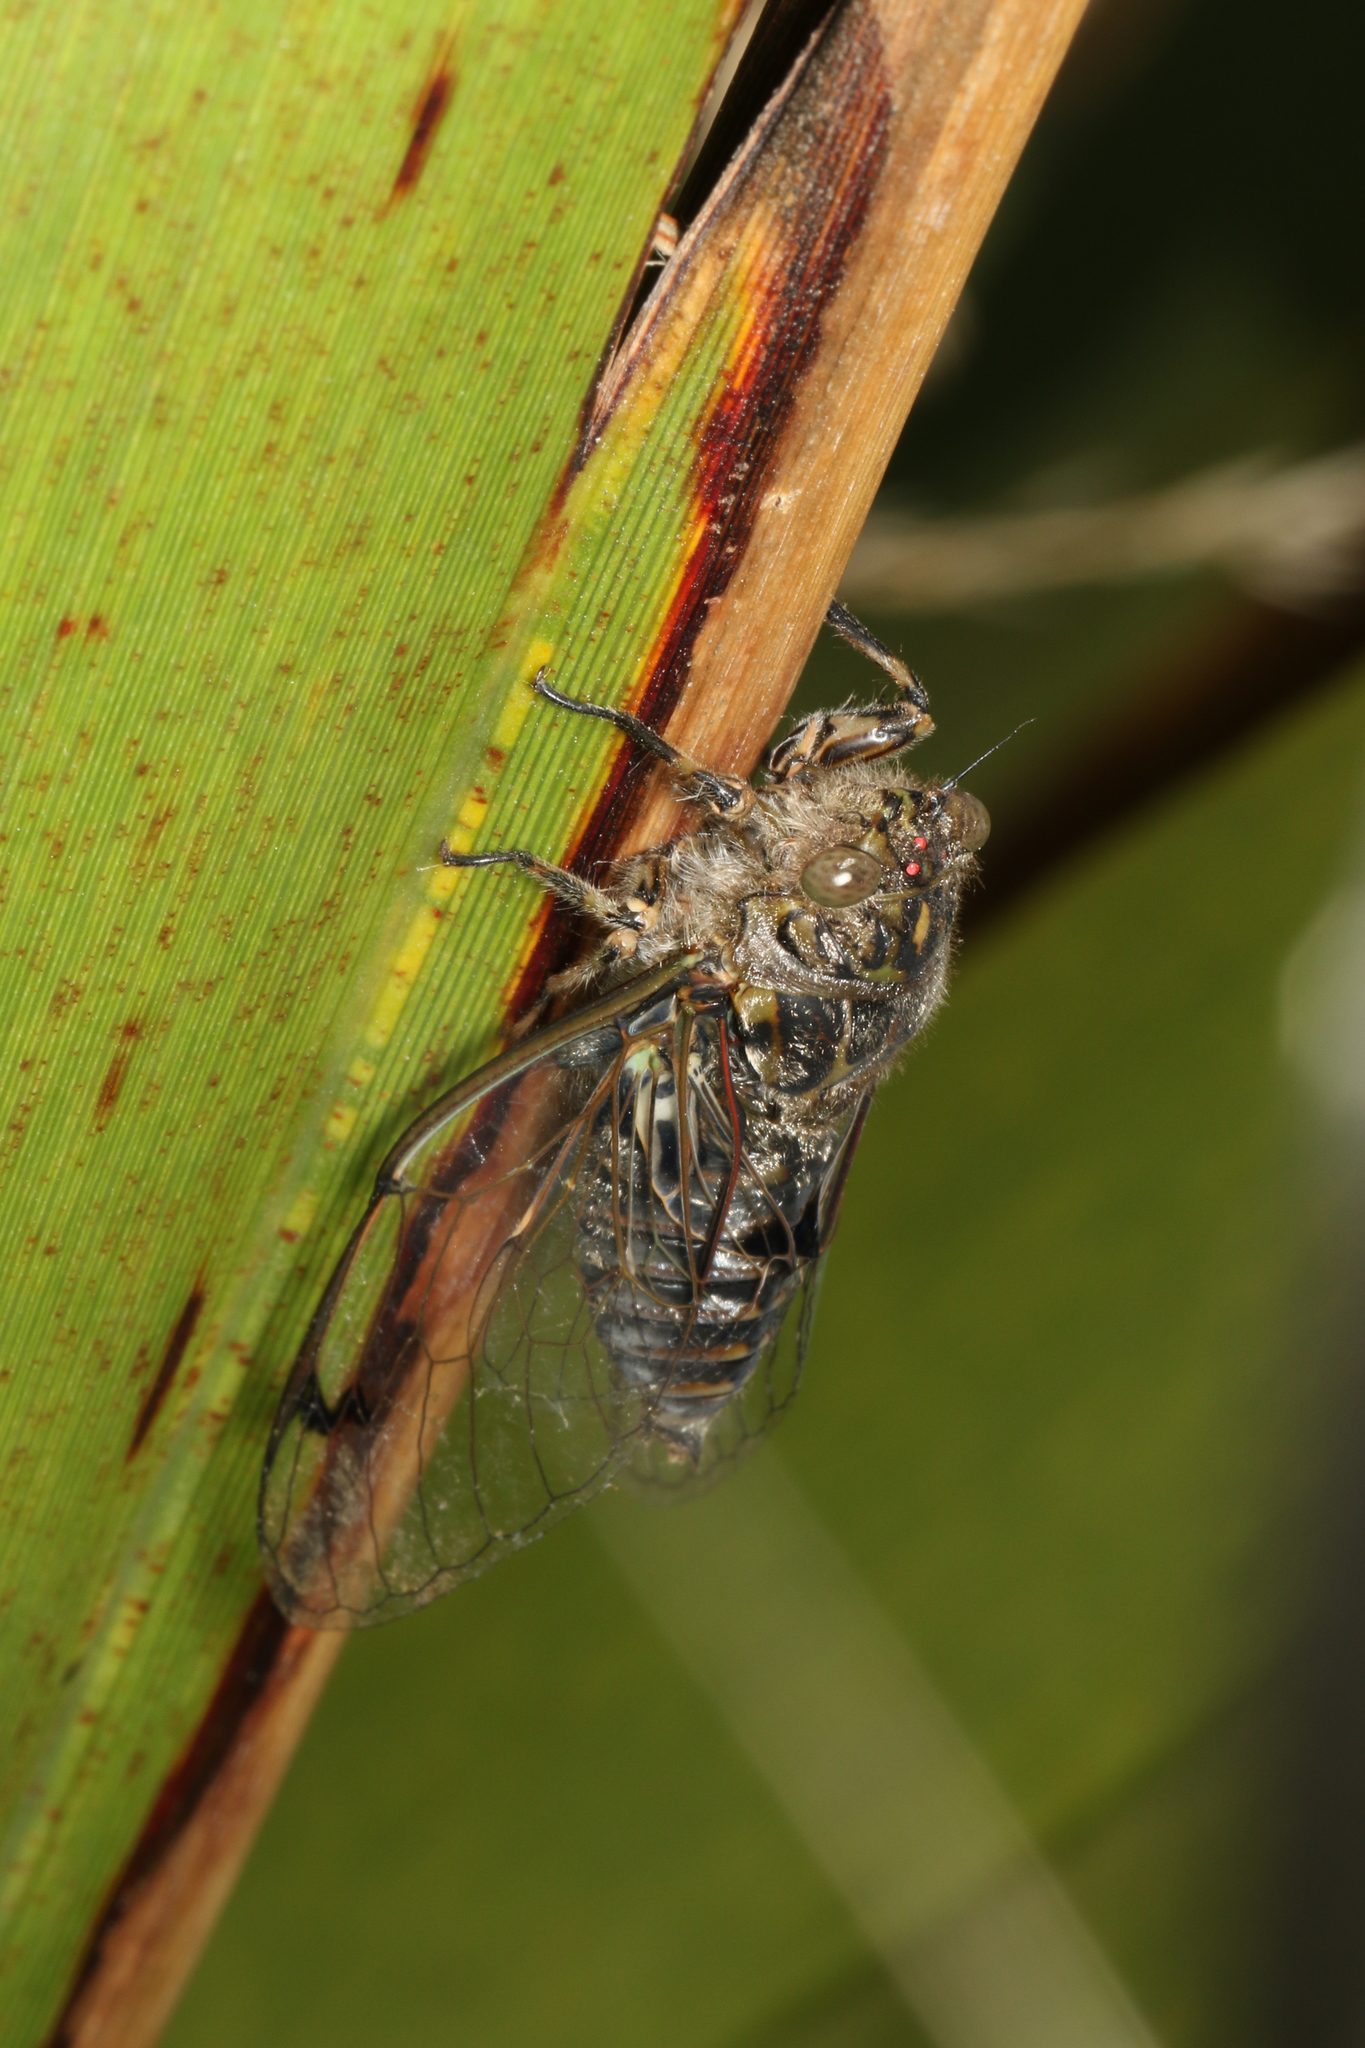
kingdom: Animalia
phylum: Arthropoda
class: Insecta
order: Hemiptera
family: Cicadidae
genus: Amphipsalta
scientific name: Amphipsalta strepitans
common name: Chirping cicada
